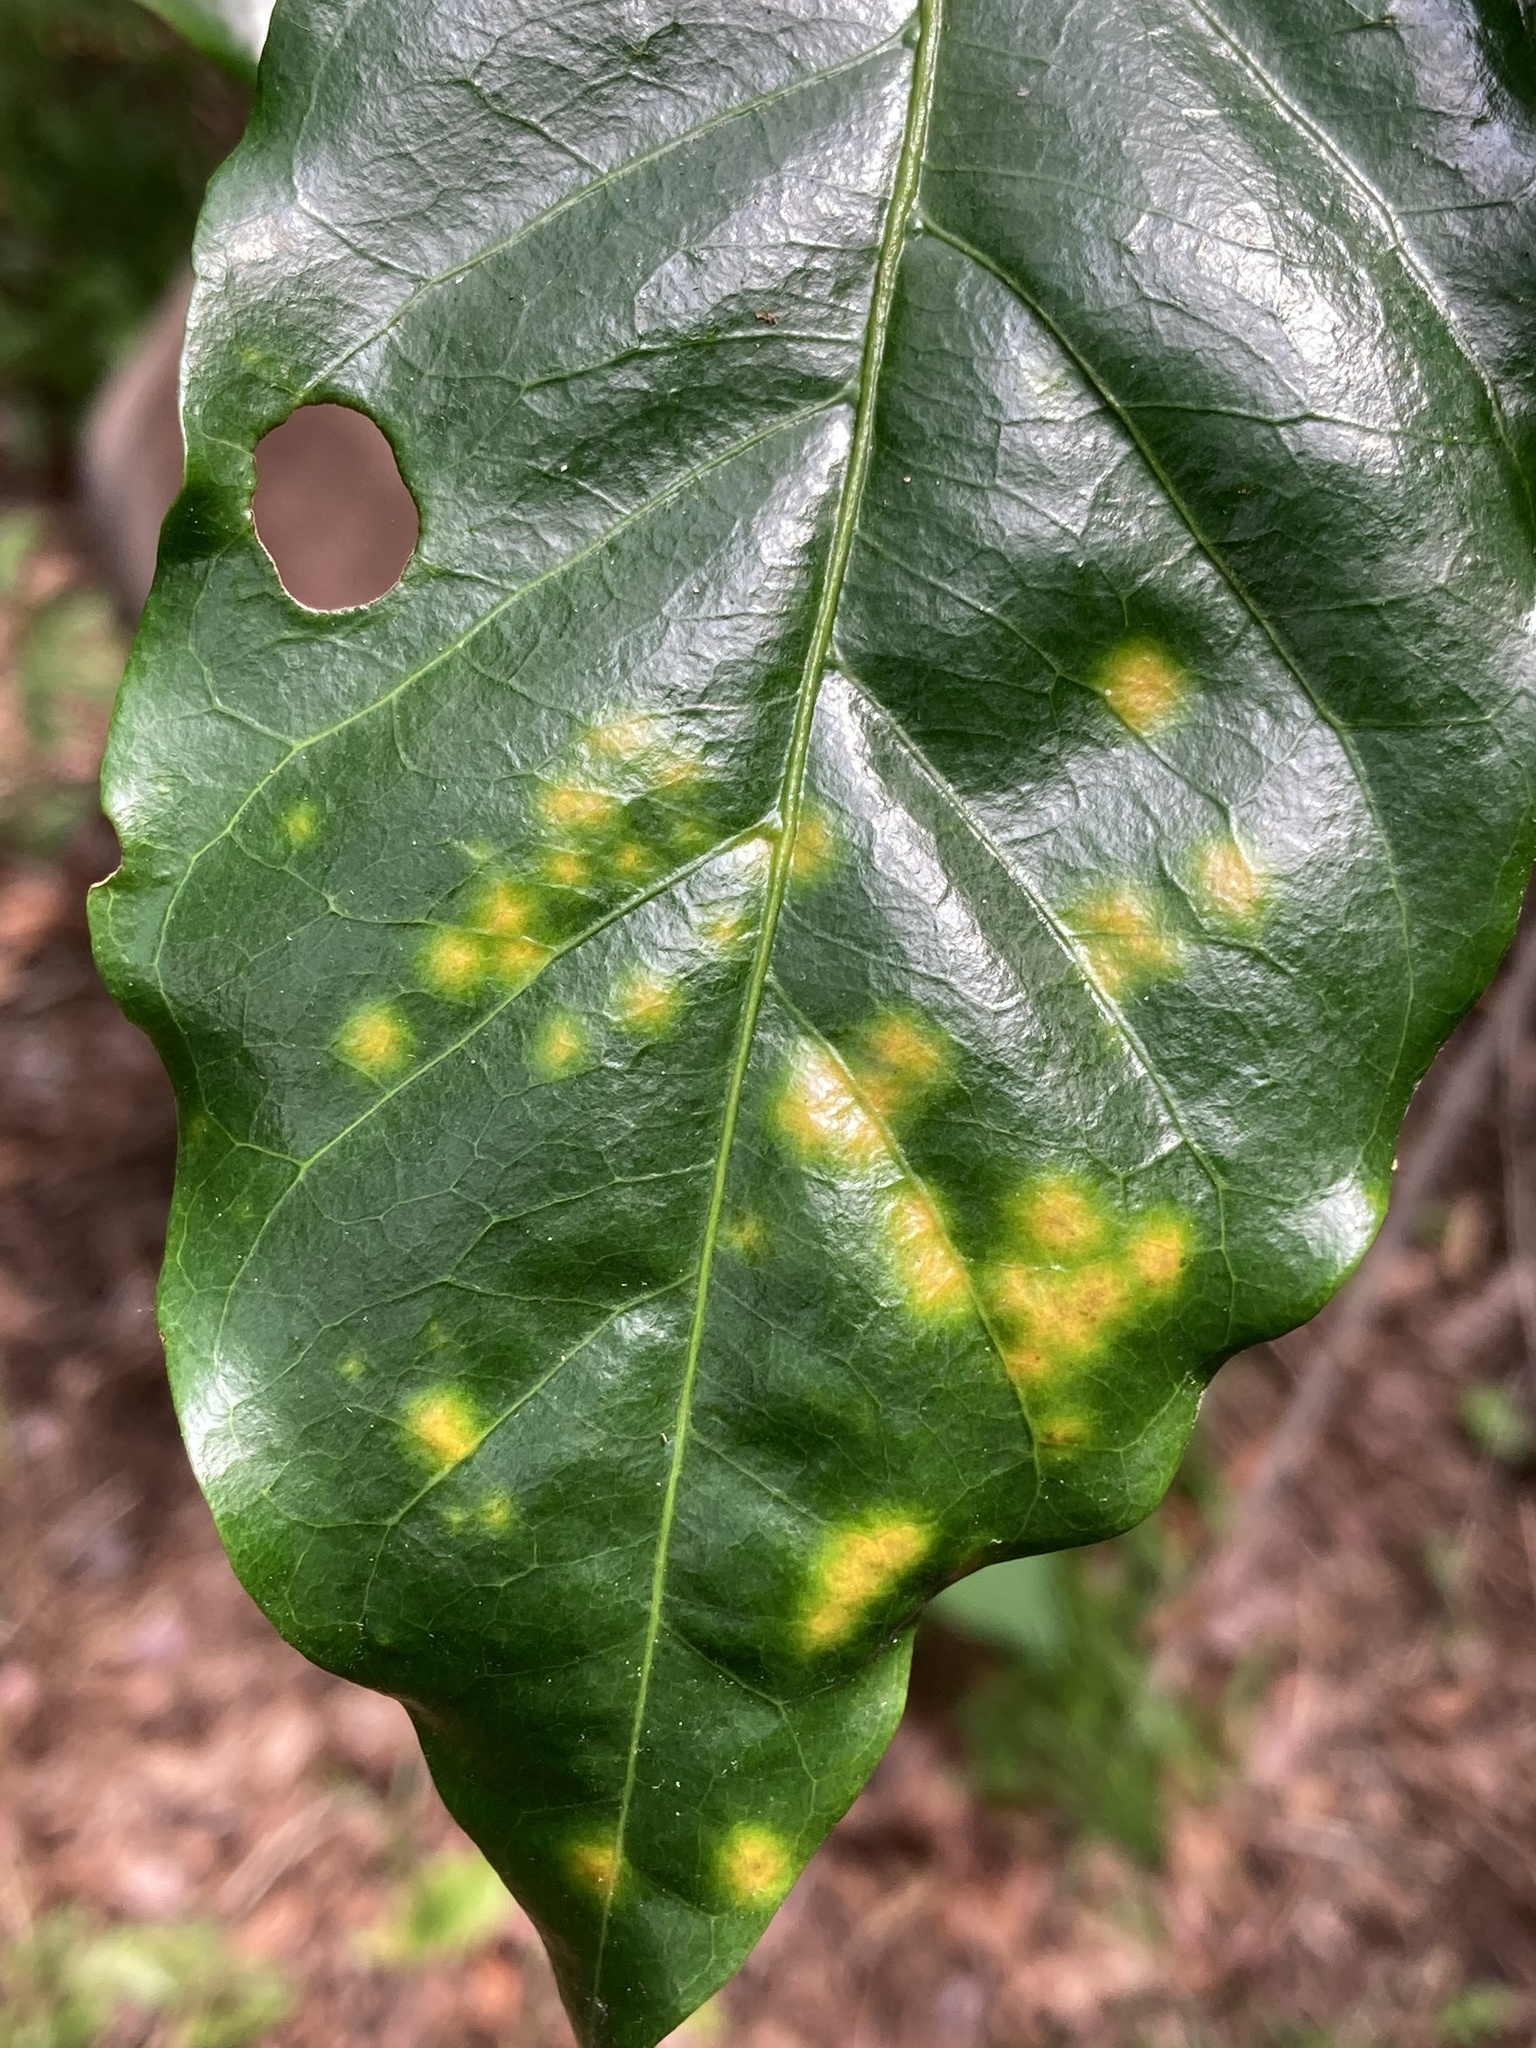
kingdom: Fungi
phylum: Basidiomycota
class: Pucciniomycetes
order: Pucciniales
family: Zaghouaniaceae
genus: Hemileia
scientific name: Hemileia vastatrix
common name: Leaf rust of coffee
